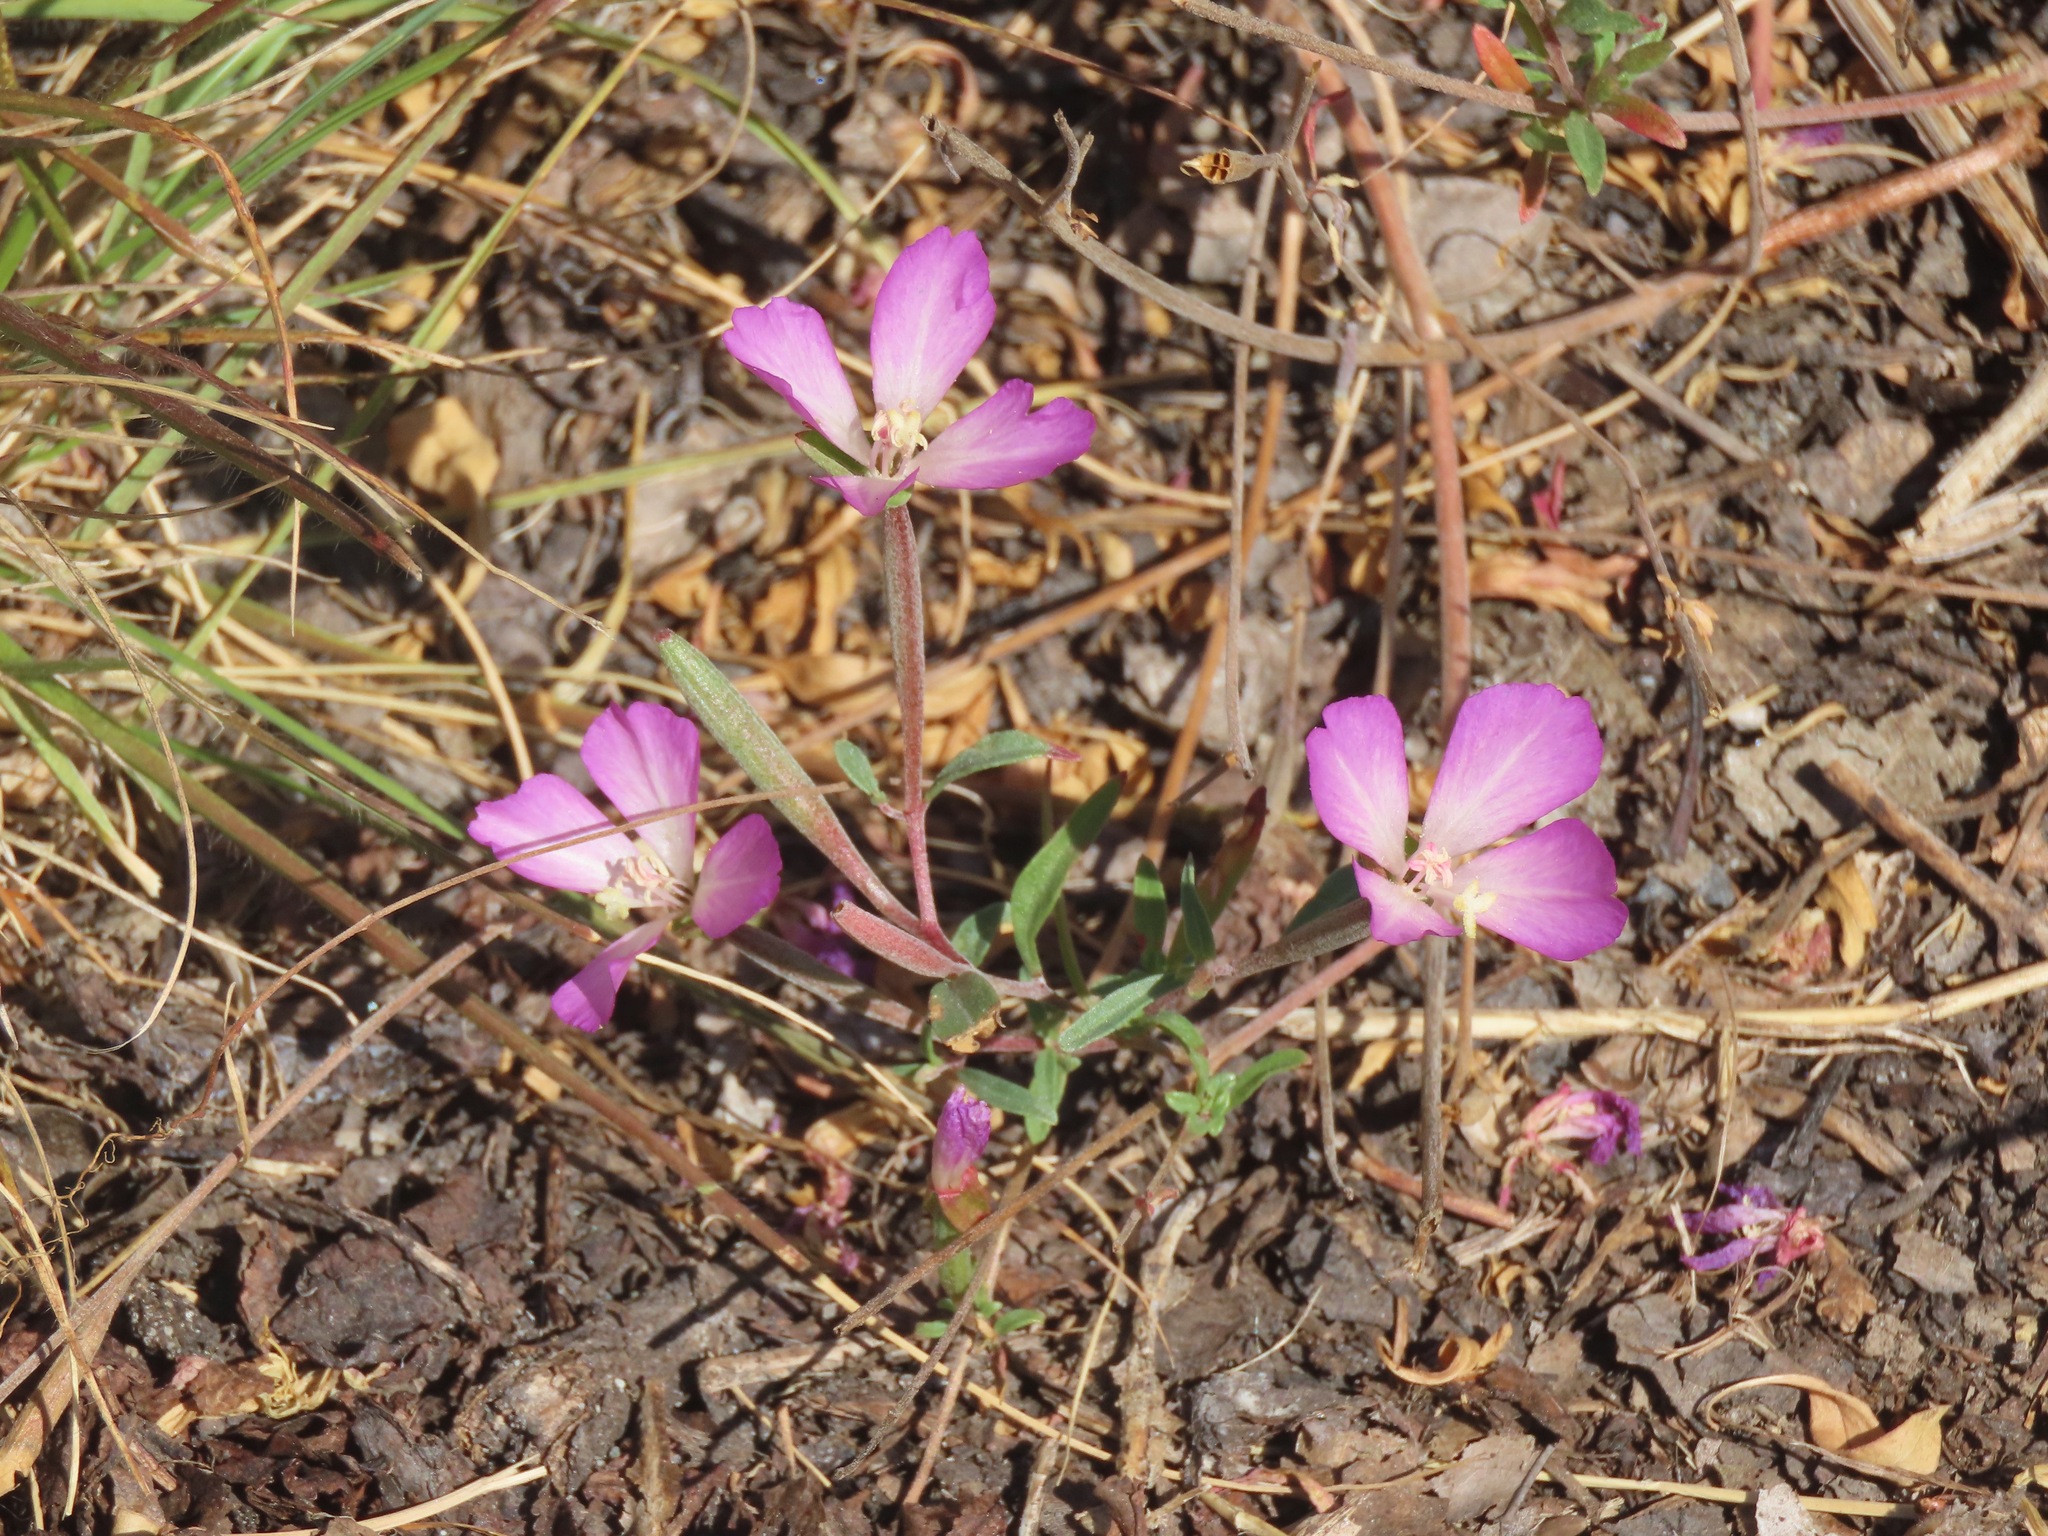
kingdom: Plantae
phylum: Tracheophyta
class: Magnoliopsida
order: Myrtales
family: Onagraceae
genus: Clarkia
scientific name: Clarkia amoena
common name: Godetia
